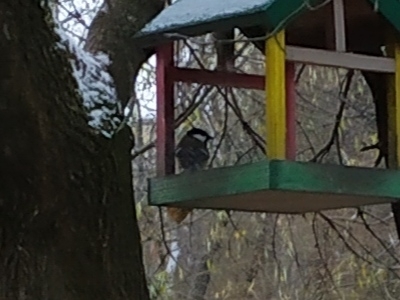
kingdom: Animalia
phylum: Chordata
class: Aves
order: Passeriformes
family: Paridae
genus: Parus
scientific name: Parus major
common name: Great tit
